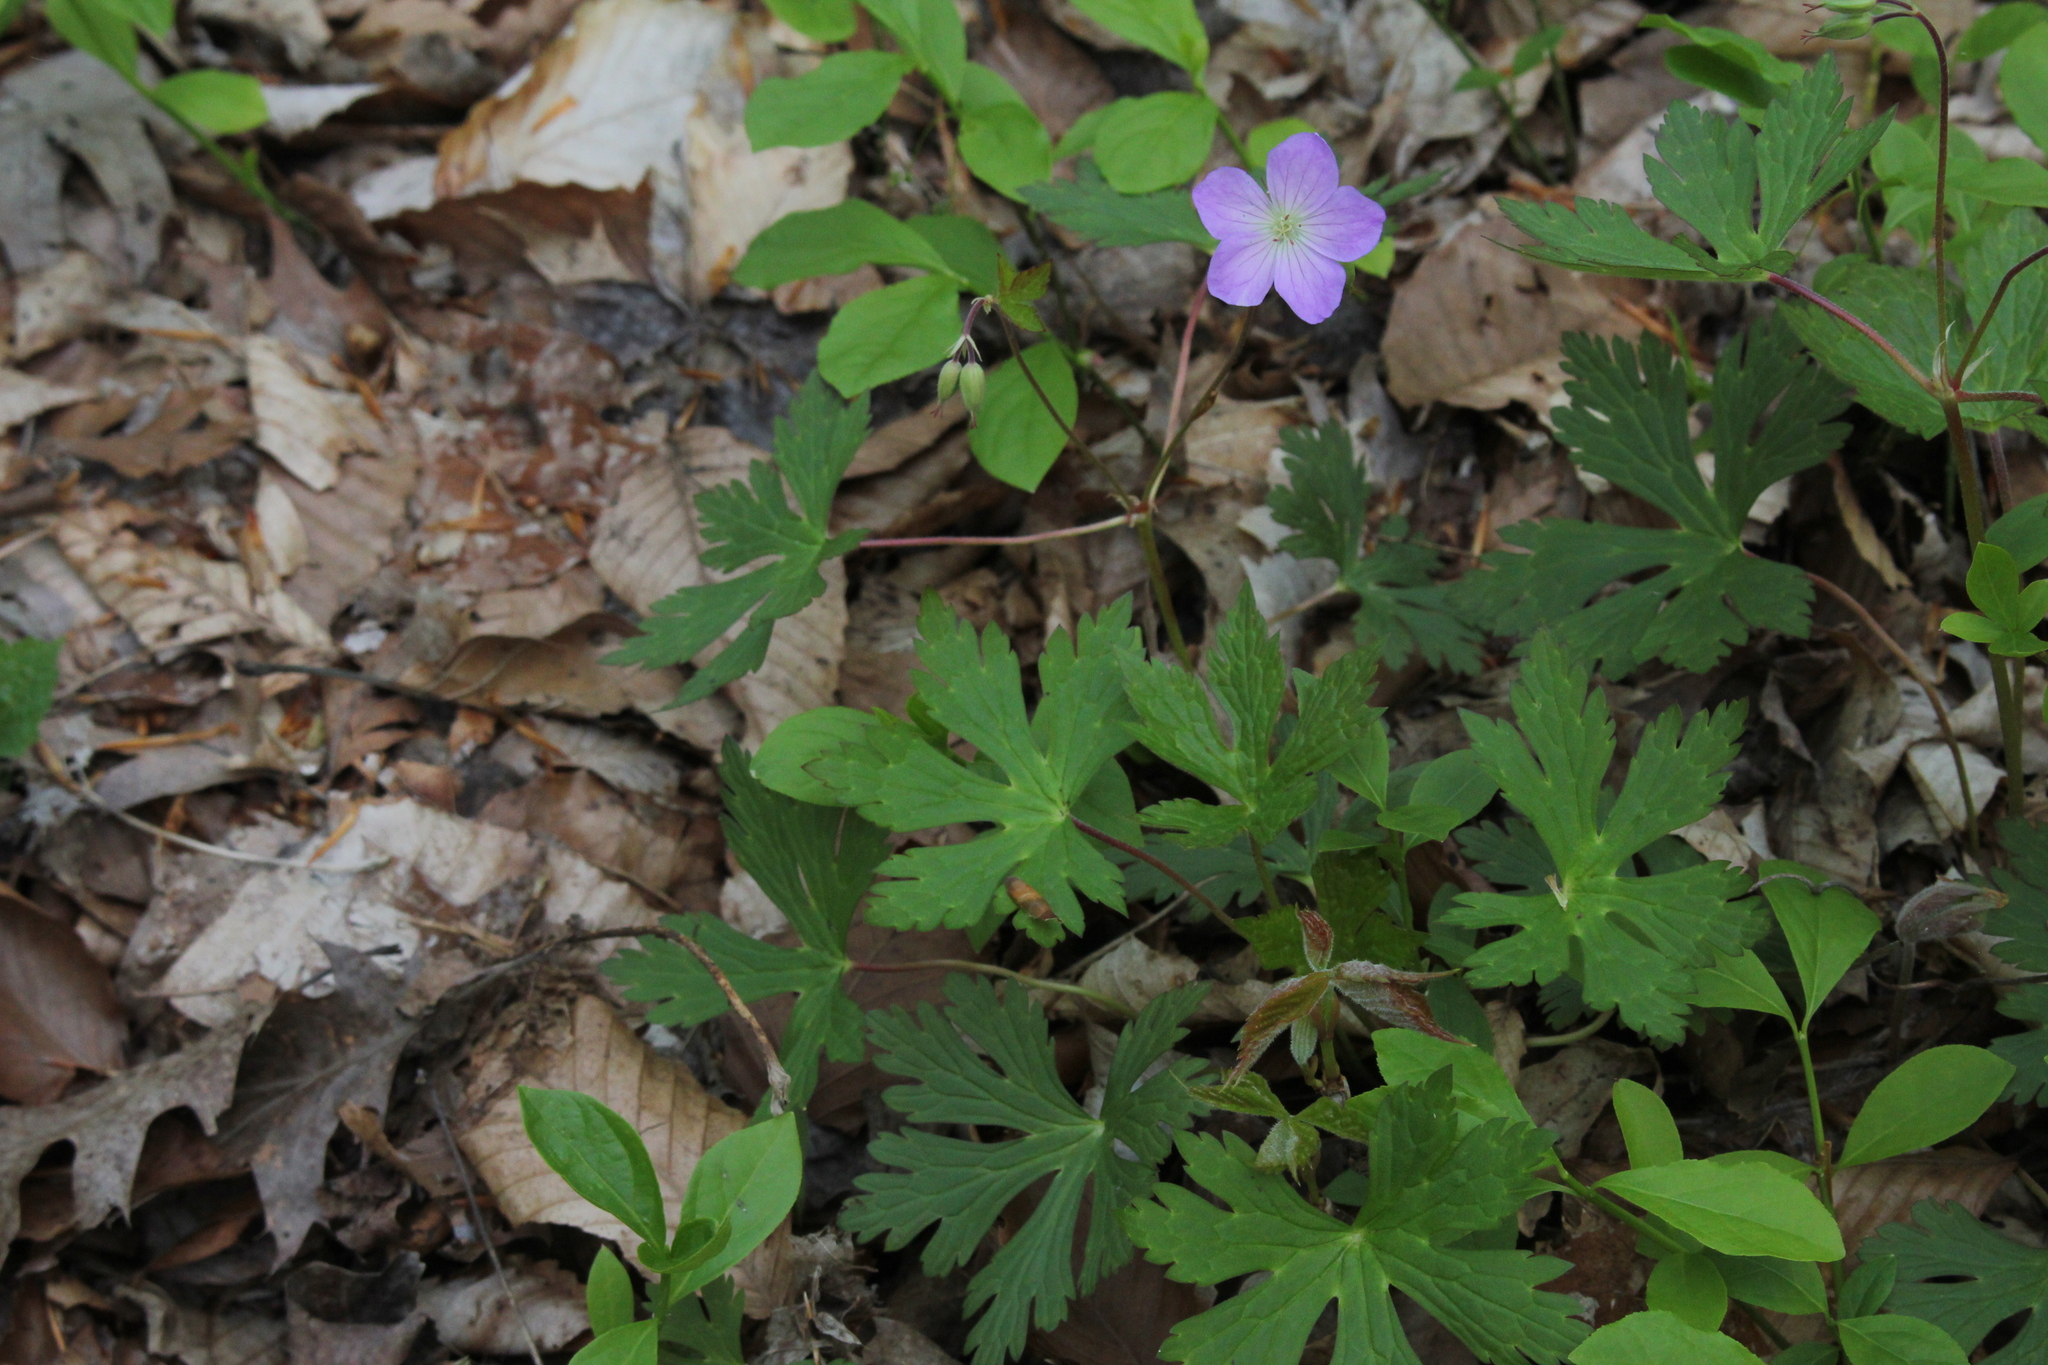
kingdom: Plantae
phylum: Tracheophyta
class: Magnoliopsida
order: Geraniales
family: Geraniaceae
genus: Geranium
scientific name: Geranium maculatum
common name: Spotted geranium
